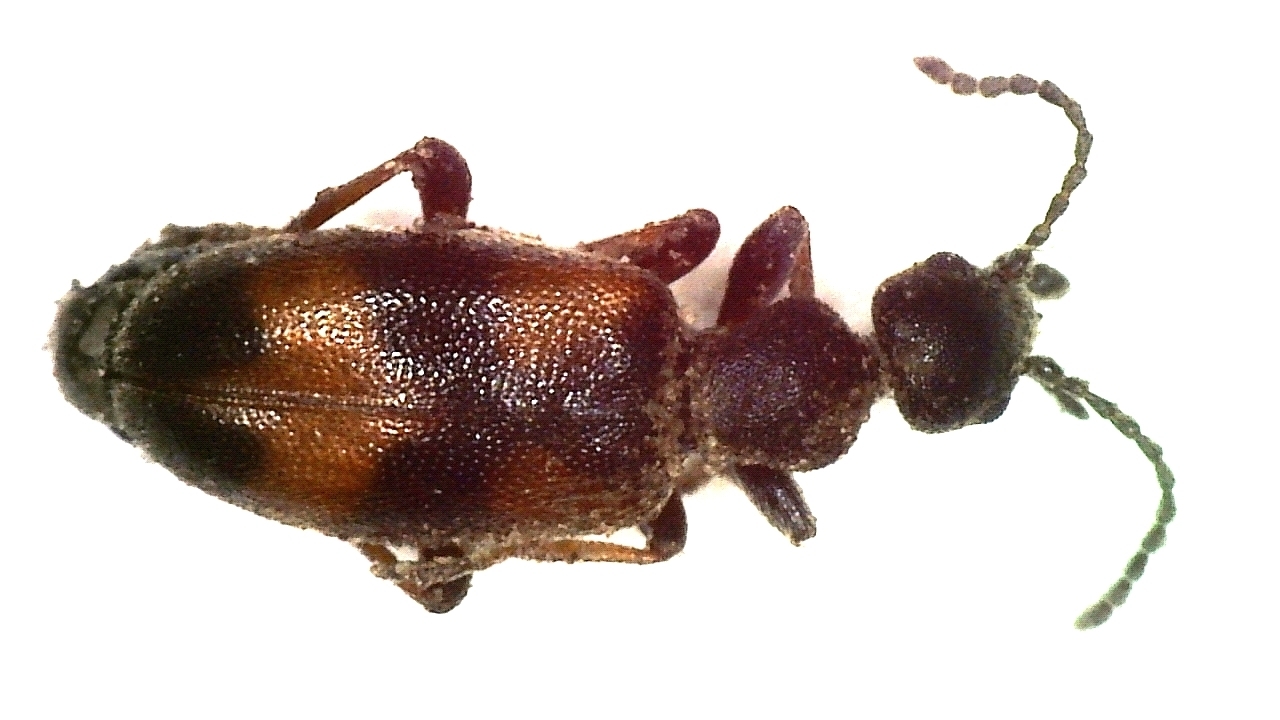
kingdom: Animalia
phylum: Arthropoda
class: Insecta
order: Coleoptera
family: Anthicidae
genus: Anthicus
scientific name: Anthicus antherinus
